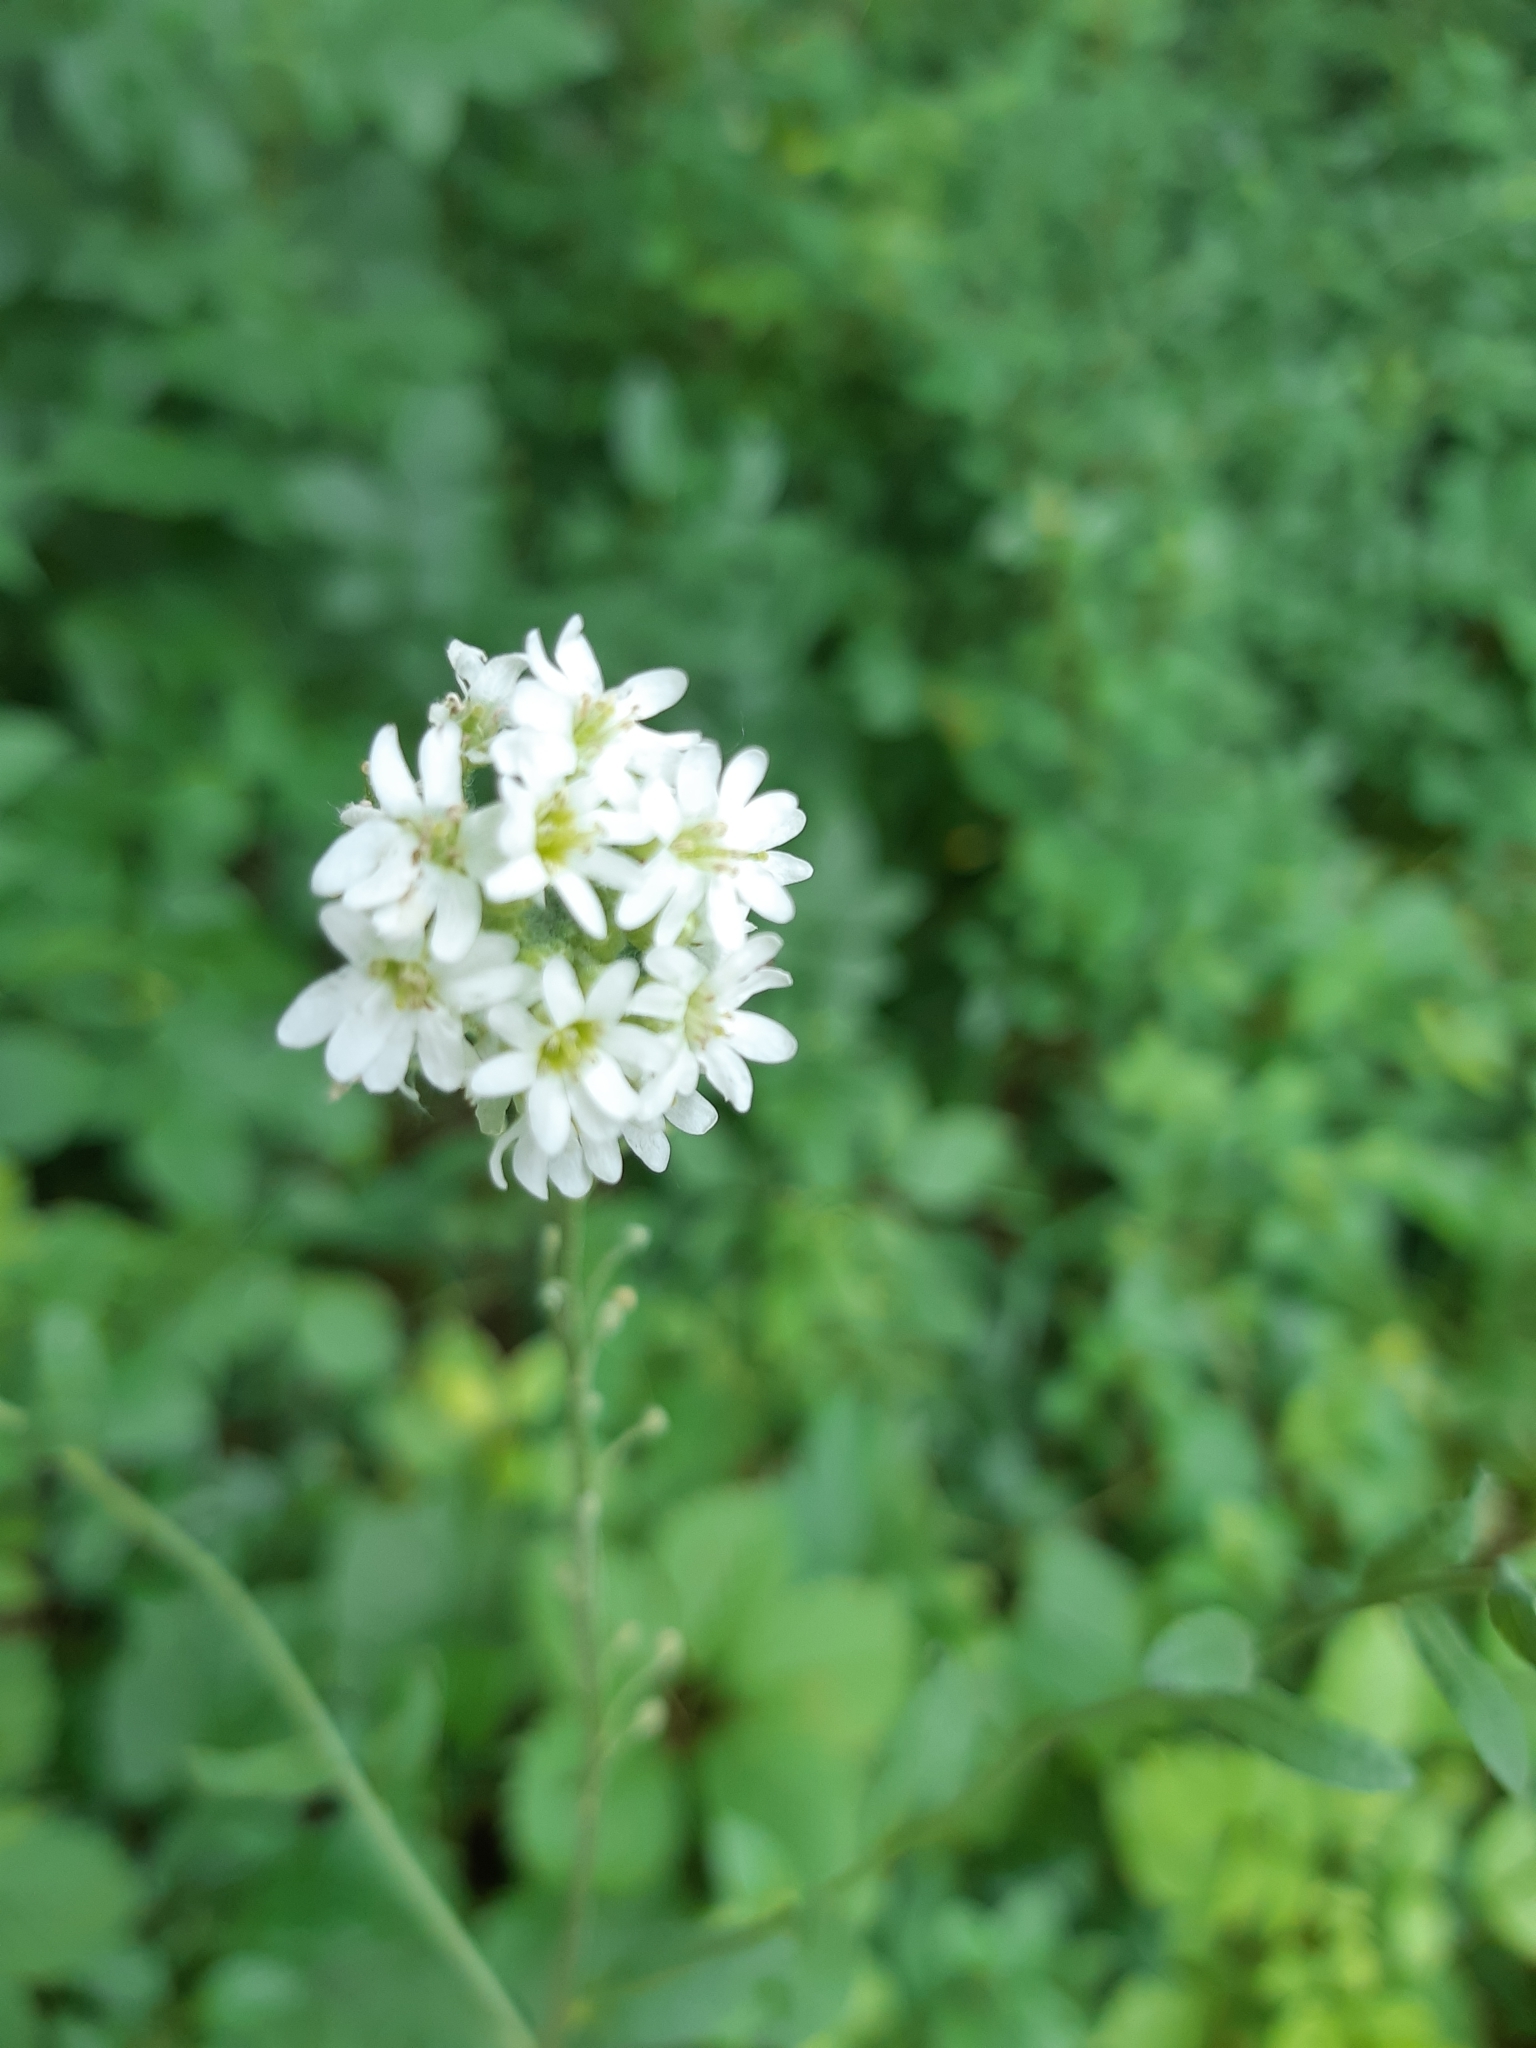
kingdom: Plantae
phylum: Tracheophyta
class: Magnoliopsida
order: Brassicales
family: Brassicaceae
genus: Berteroa
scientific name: Berteroa incana
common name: Hoary alison
